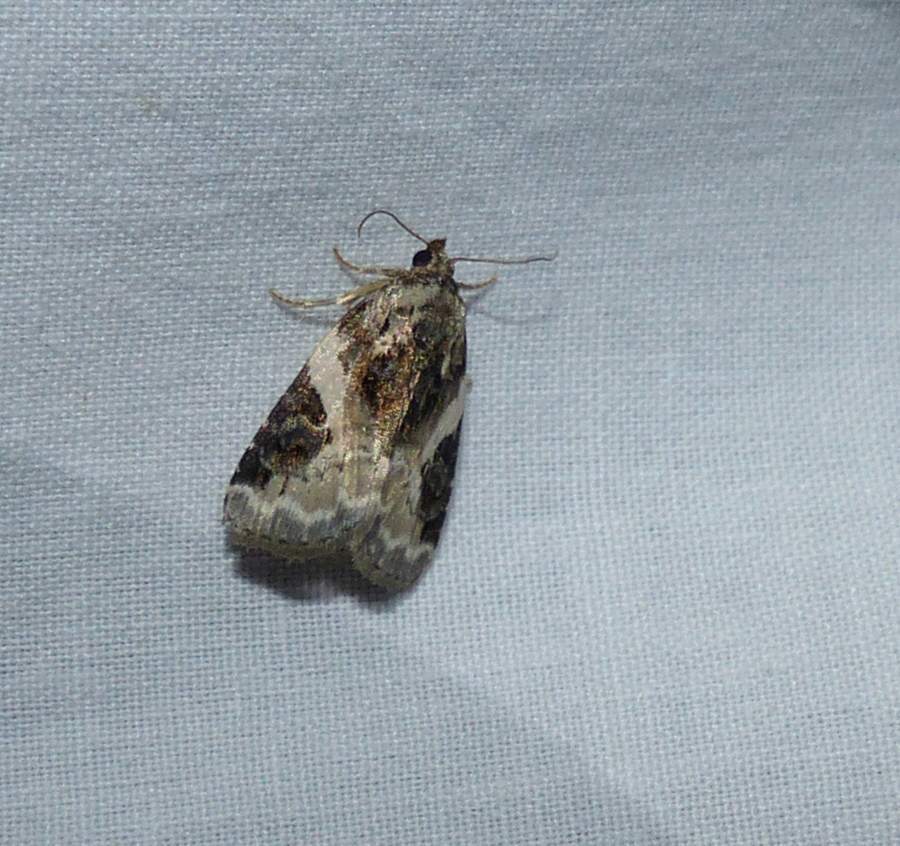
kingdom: Animalia
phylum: Arthropoda
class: Insecta
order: Lepidoptera
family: Noctuidae
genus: Pseudeustrotia
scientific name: Pseudeustrotia carneola
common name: Pink-barred lithacodia moth
